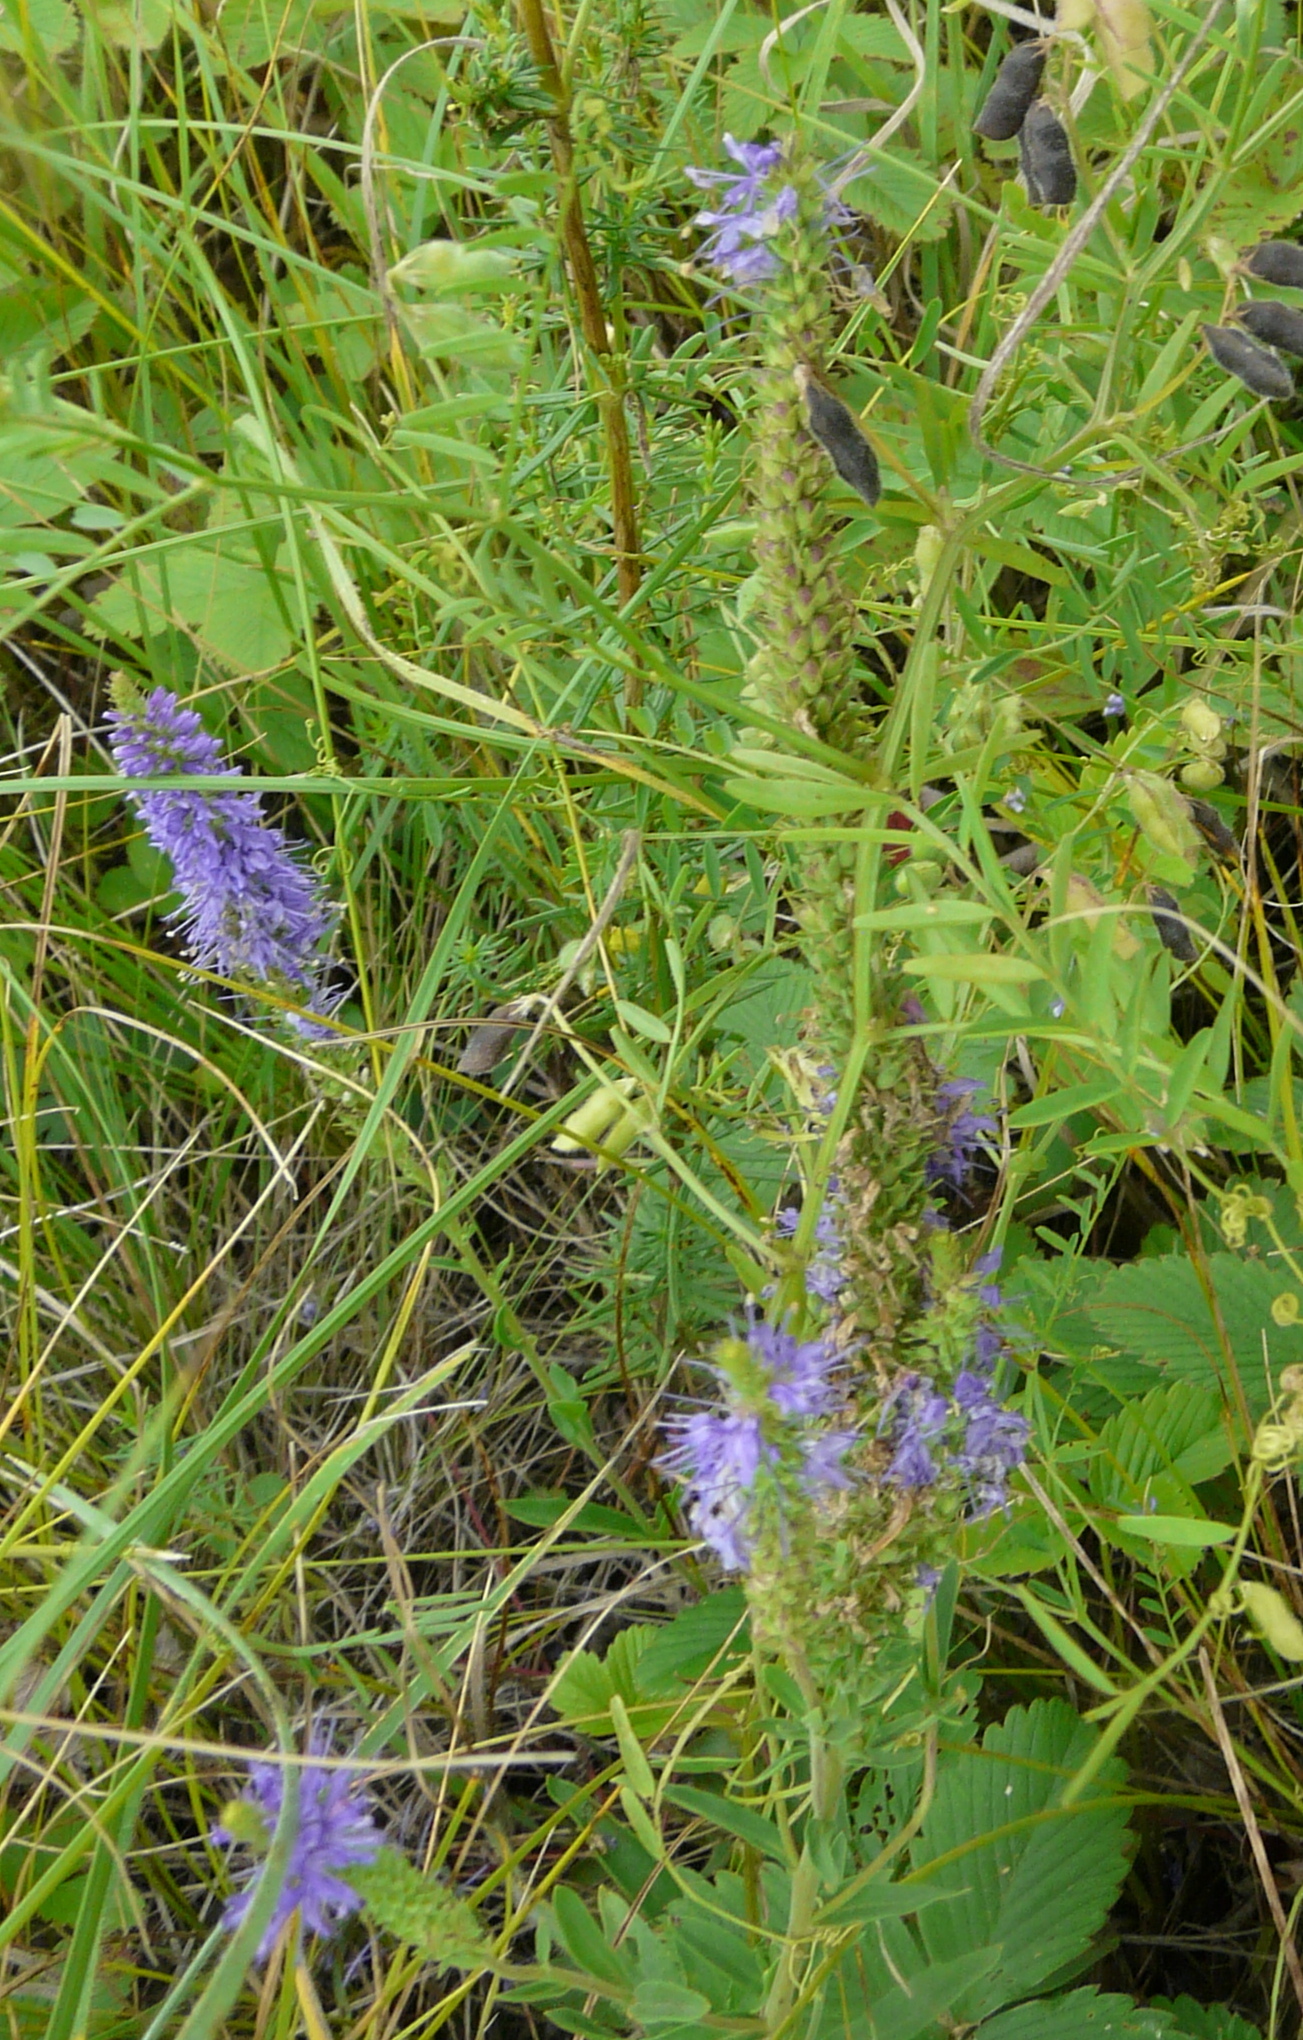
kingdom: Plantae
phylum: Tracheophyta
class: Magnoliopsida
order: Lamiales
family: Plantaginaceae
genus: Veronica
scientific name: Veronica spicata
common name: Spiked speedwell
